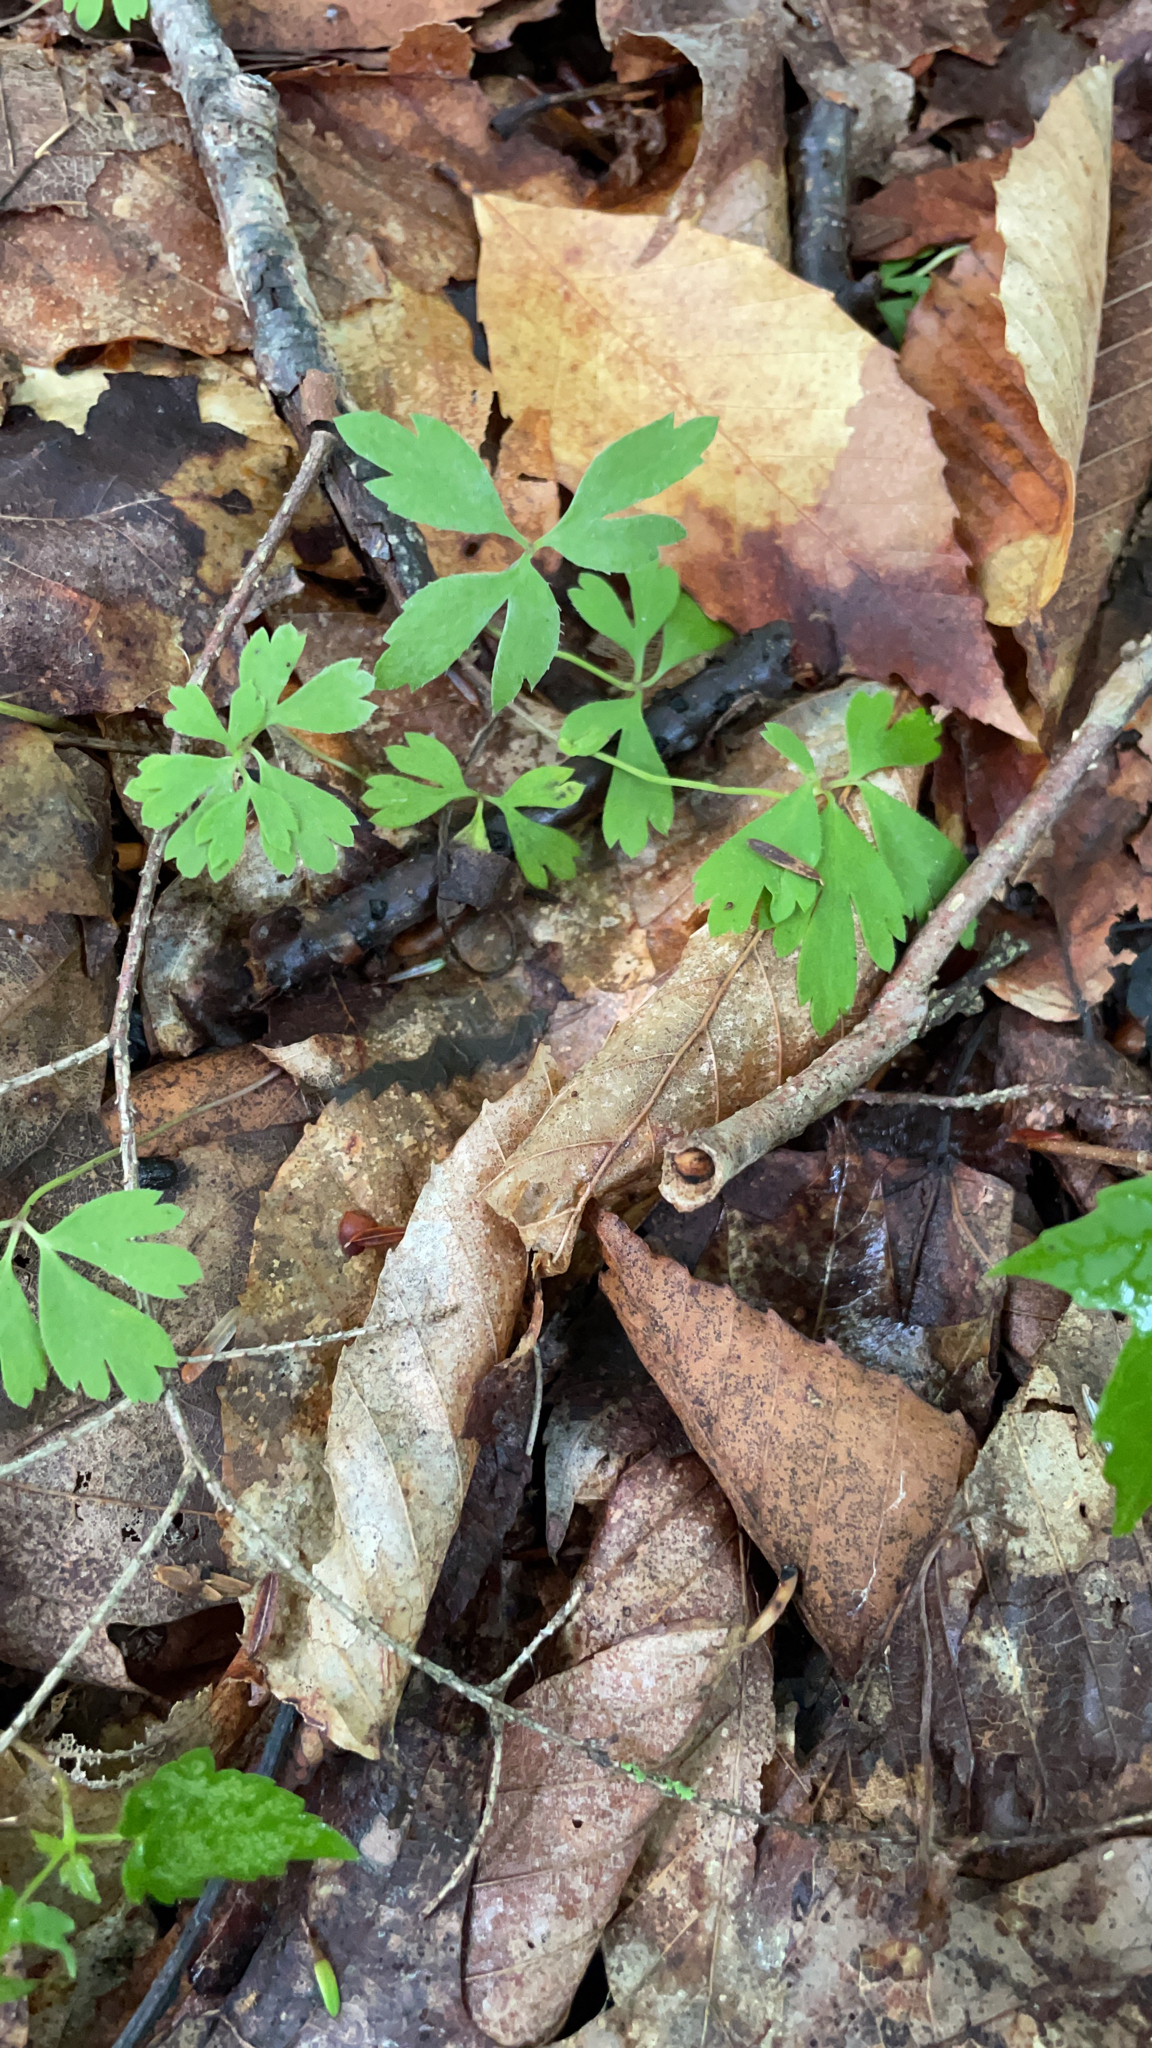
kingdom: Plantae
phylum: Tracheophyta
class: Magnoliopsida
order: Ranunculales
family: Ranunculaceae
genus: Anemone
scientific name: Anemone quinquefolia
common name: Wood anemone
